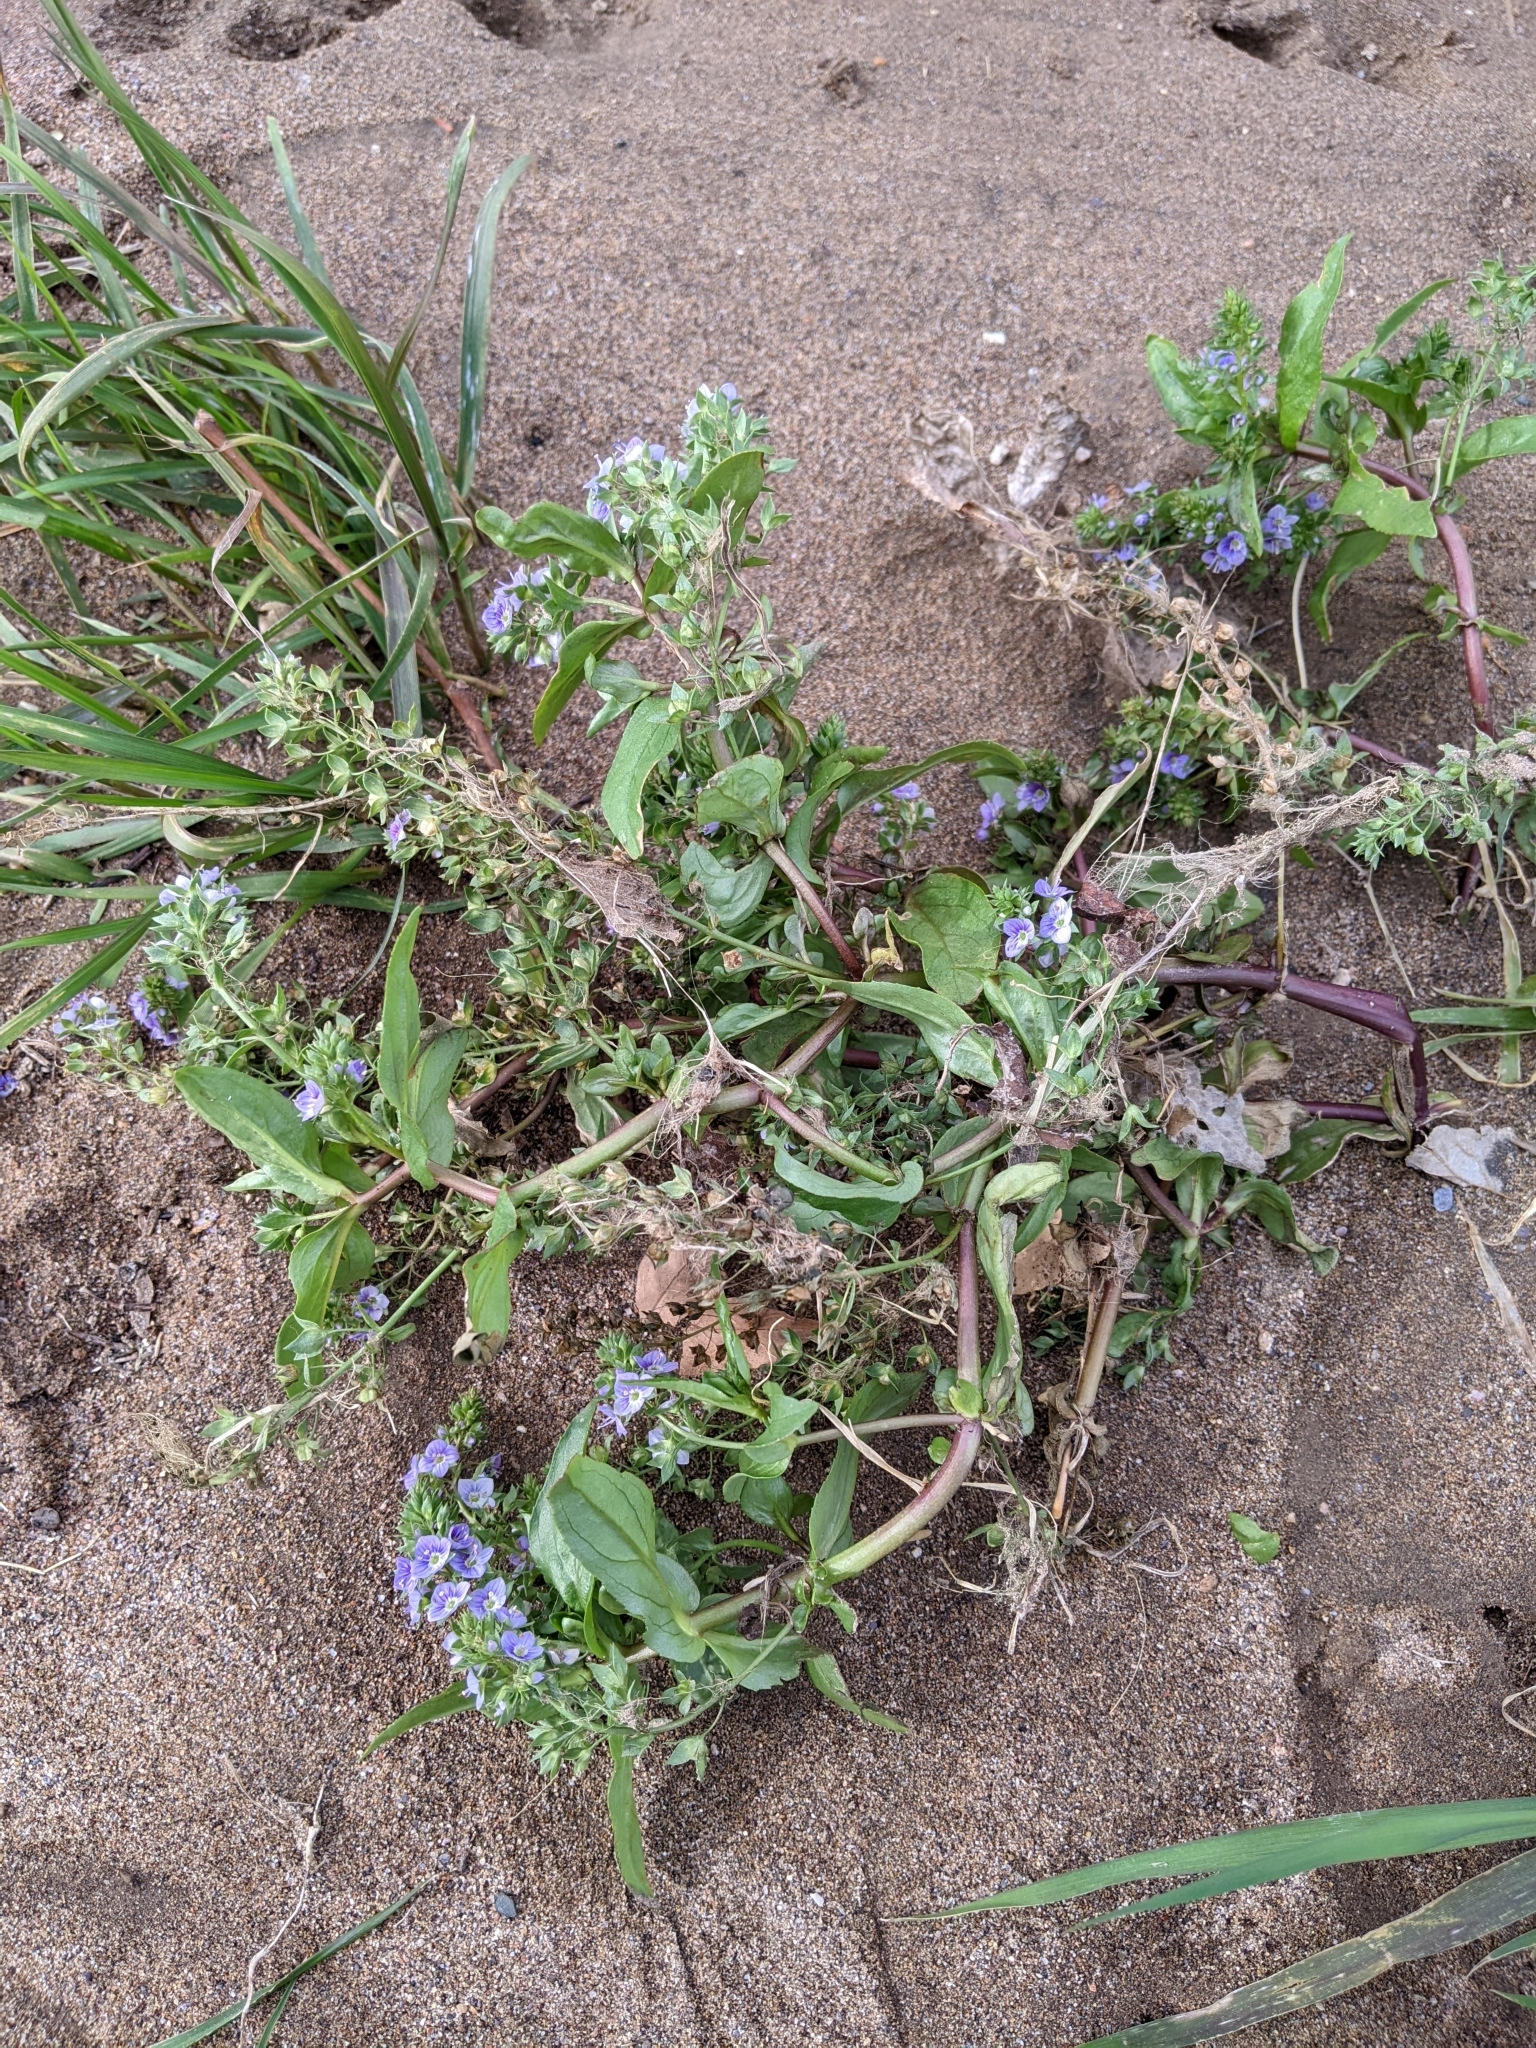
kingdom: Plantae
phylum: Tracheophyta
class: Magnoliopsida
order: Lamiales
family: Plantaginaceae
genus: Veronica
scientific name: Veronica anagallis-aquatica
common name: Water speedwell
